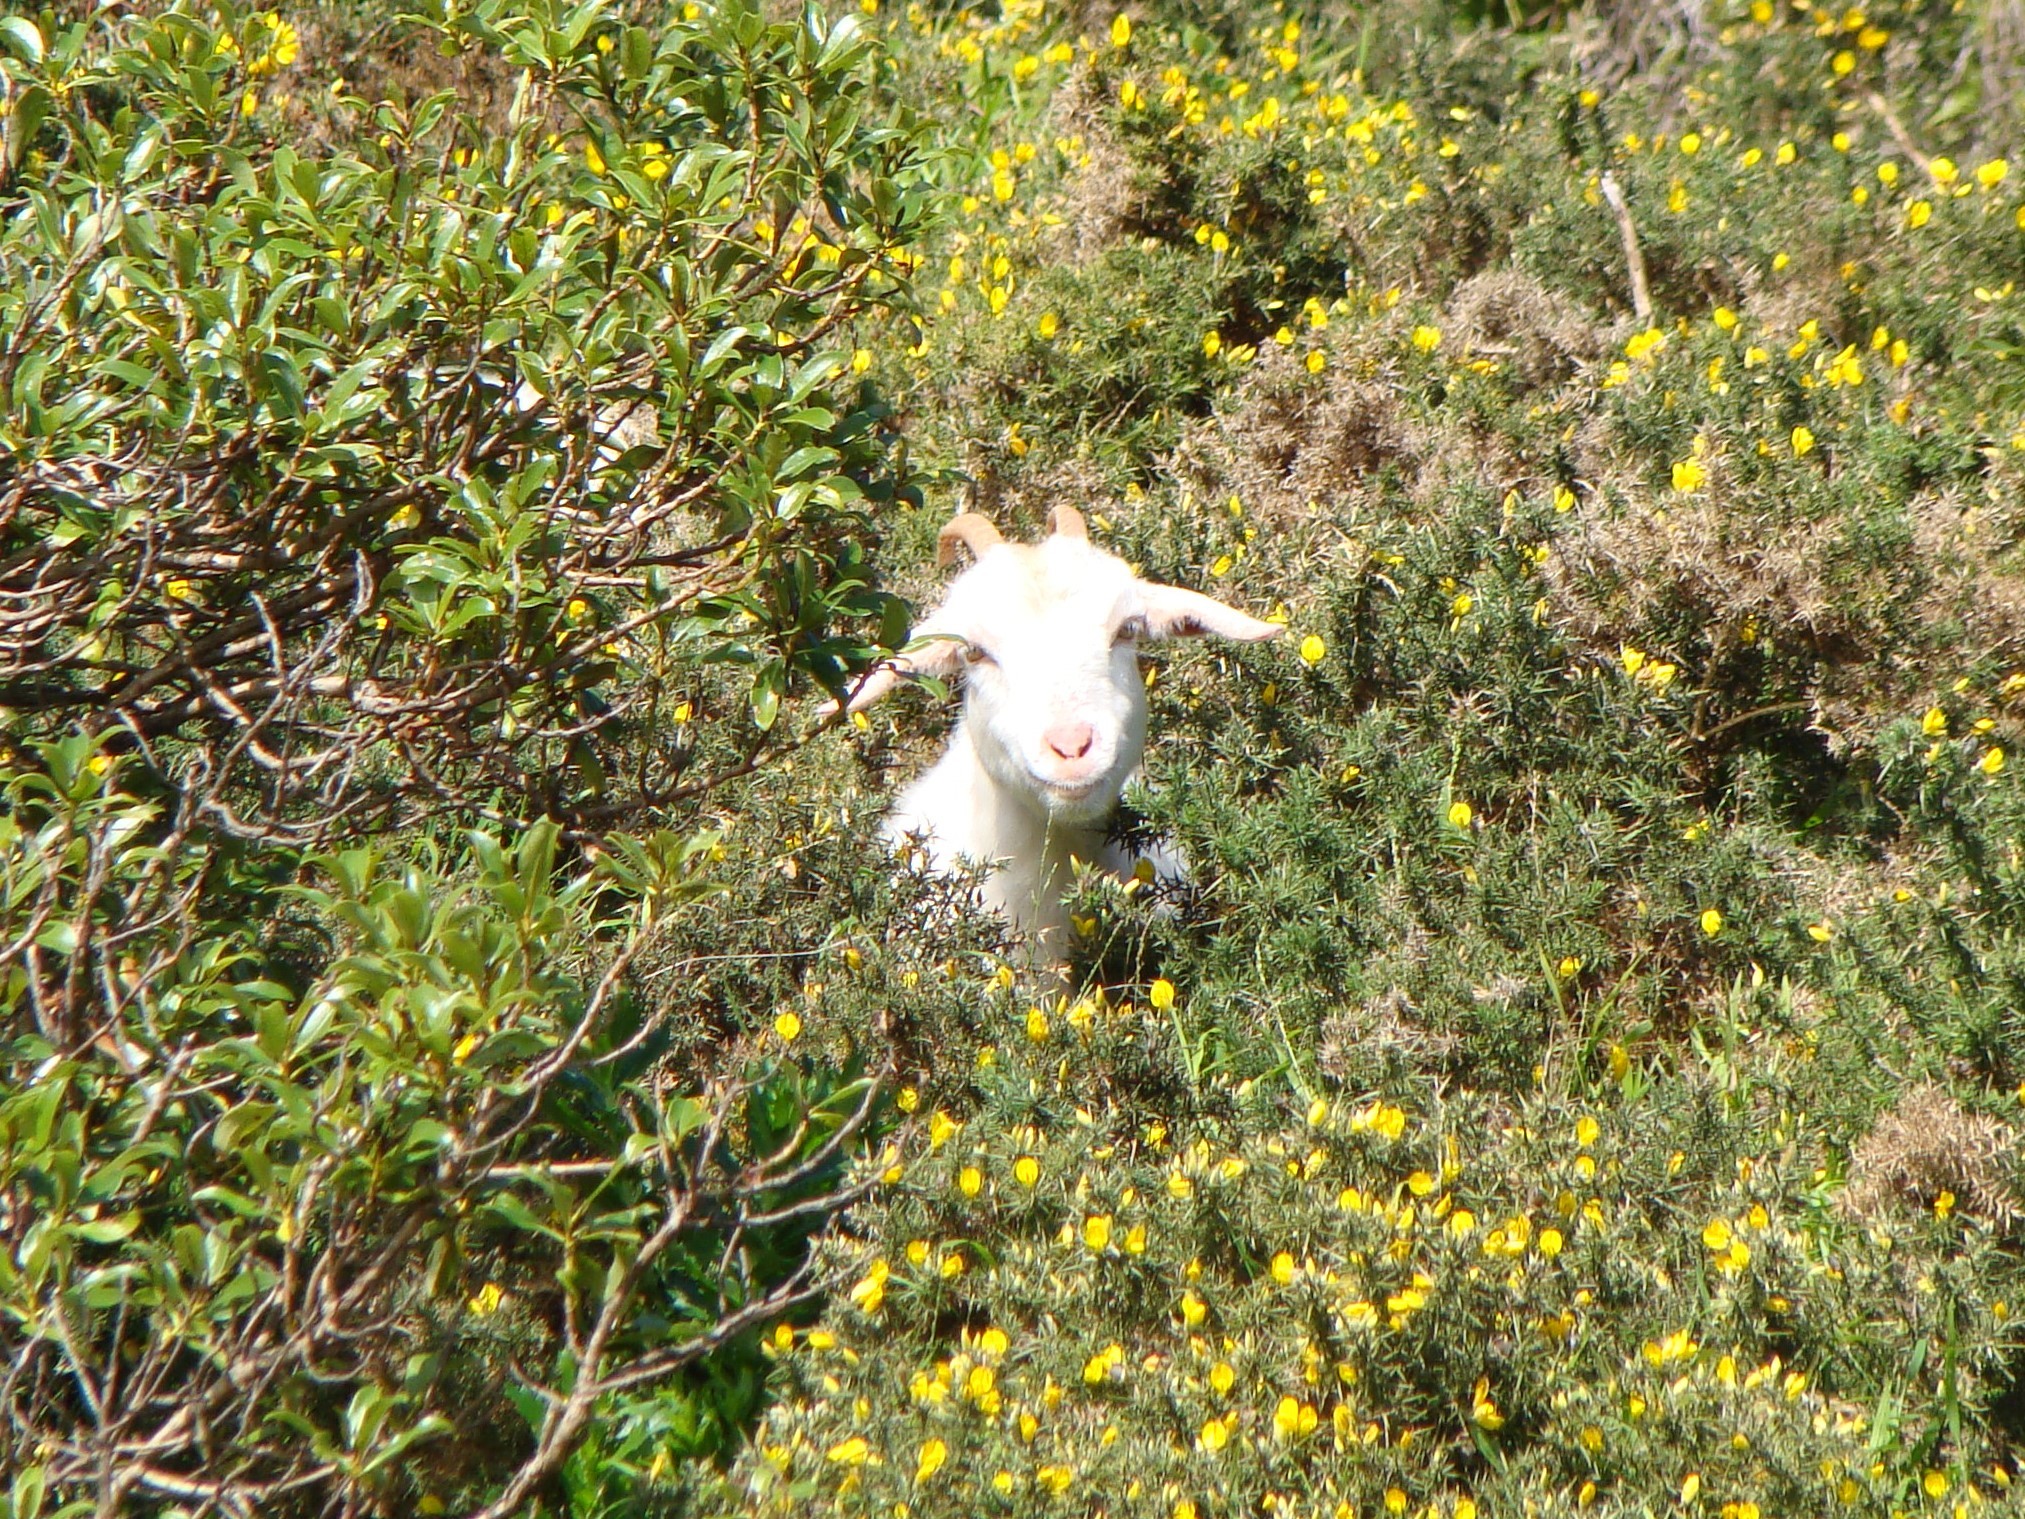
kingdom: Animalia
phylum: Chordata
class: Mammalia
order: Artiodactyla
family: Bovidae
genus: Capra
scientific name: Capra hircus
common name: Domestic goat
